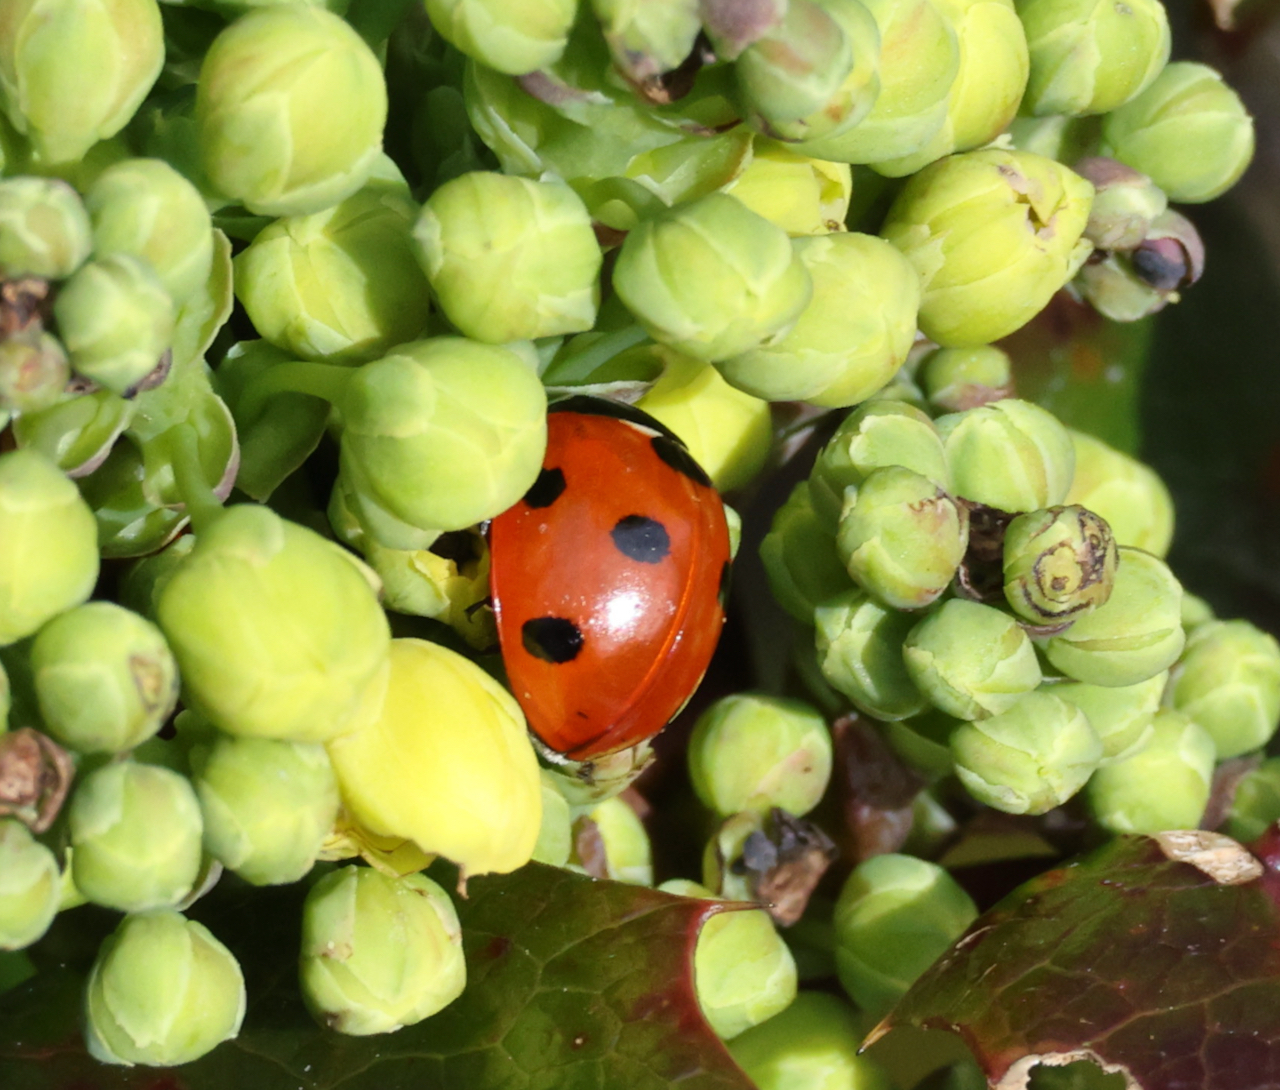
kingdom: Animalia
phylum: Arthropoda
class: Insecta
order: Coleoptera
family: Coccinellidae
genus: Coccinella
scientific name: Coccinella septempunctata
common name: Sevenspotted lady beetle
